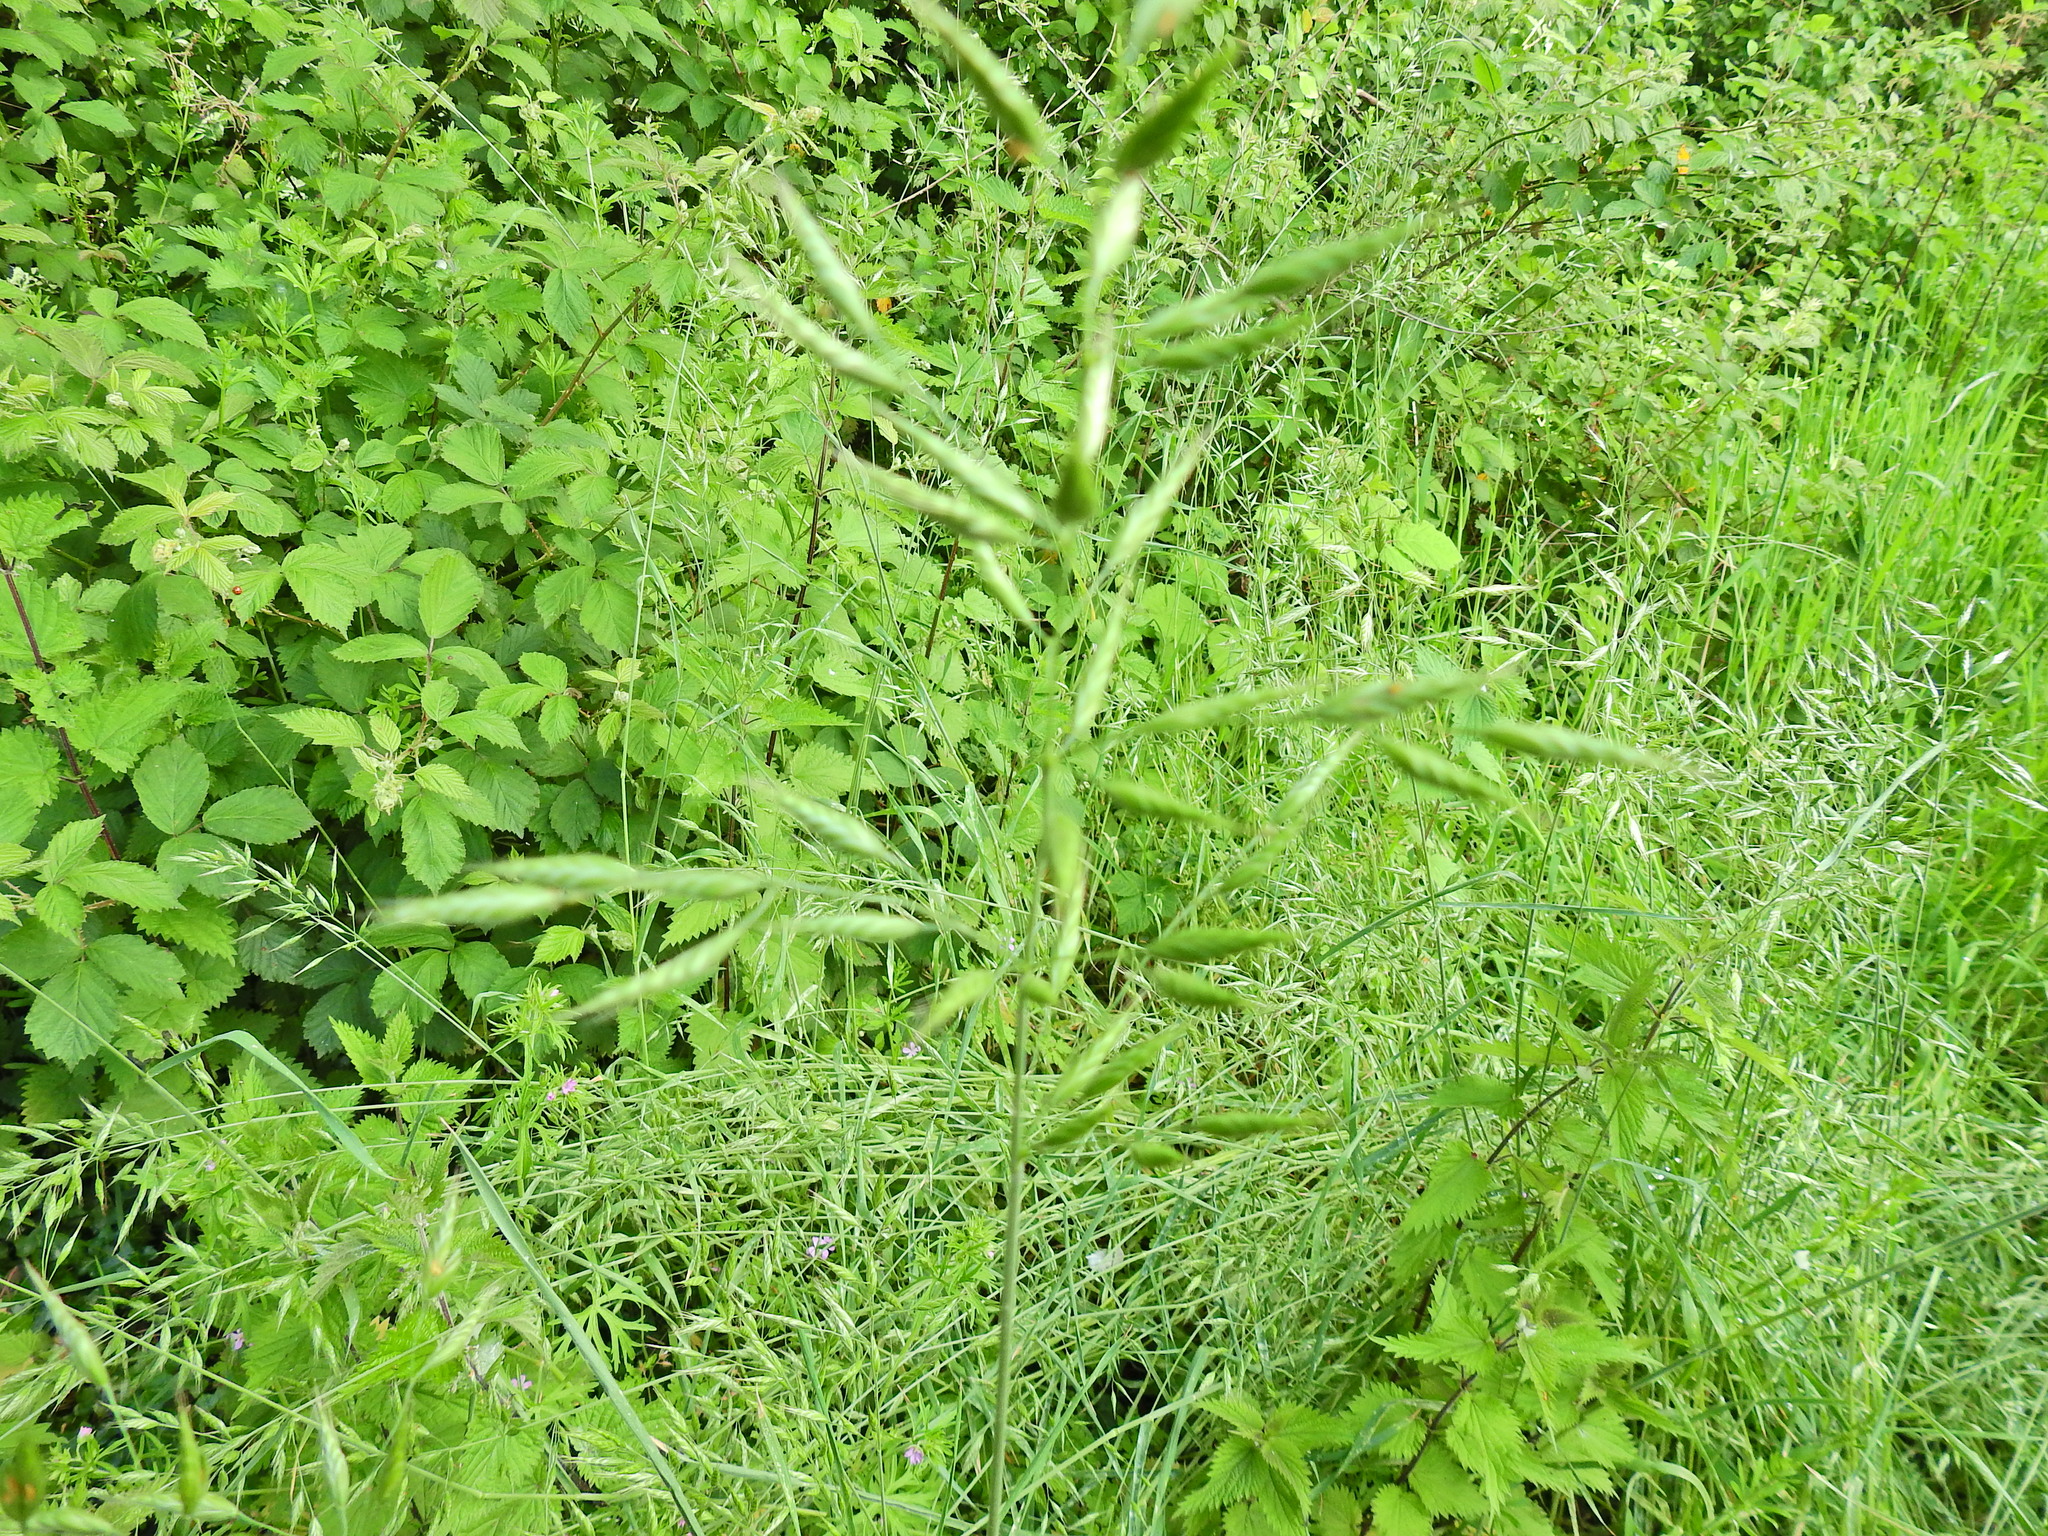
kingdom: Plantae
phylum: Tracheophyta
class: Liliopsida
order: Poales
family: Poaceae
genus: Bromus
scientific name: Bromus hordeaceus
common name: Soft brome
